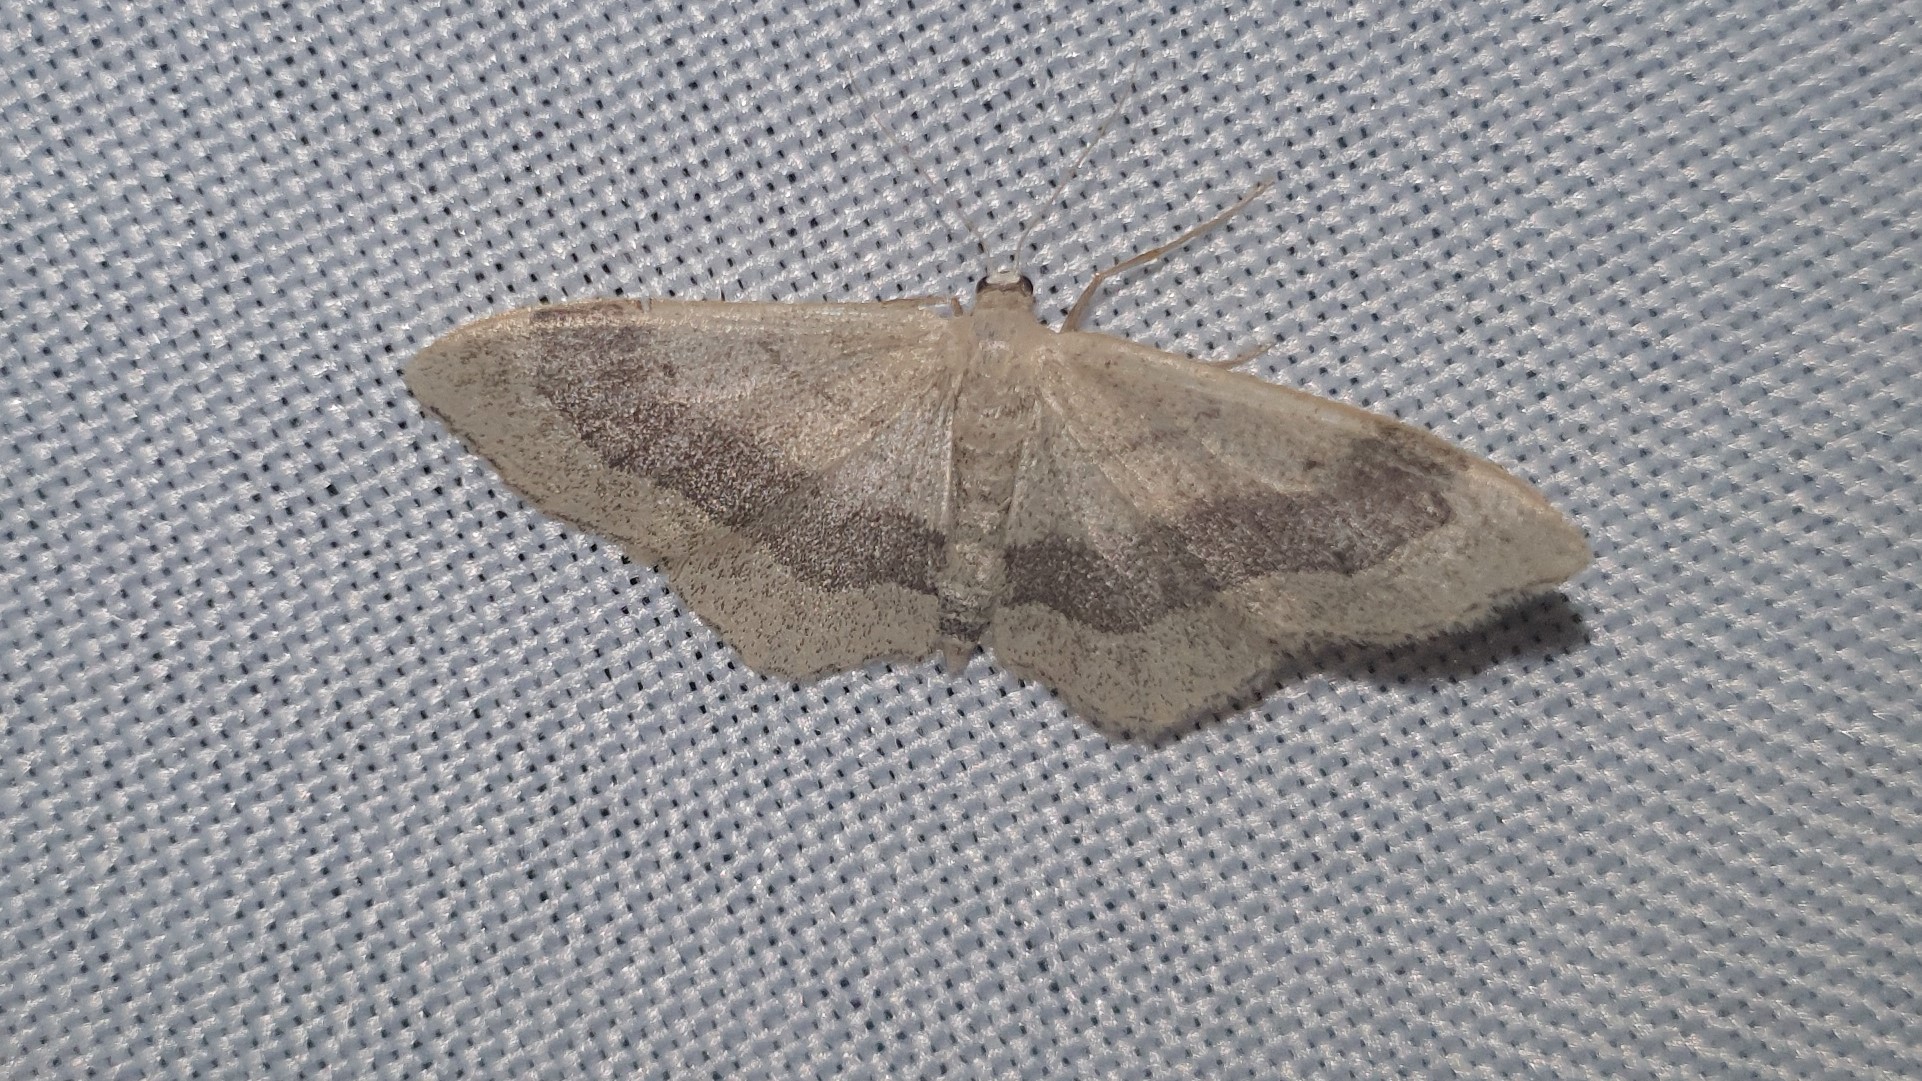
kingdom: Animalia
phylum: Arthropoda
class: Insecta
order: Lepidoptera
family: Geometridae
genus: Idaea
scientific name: Idaea aversata
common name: Riband wave
